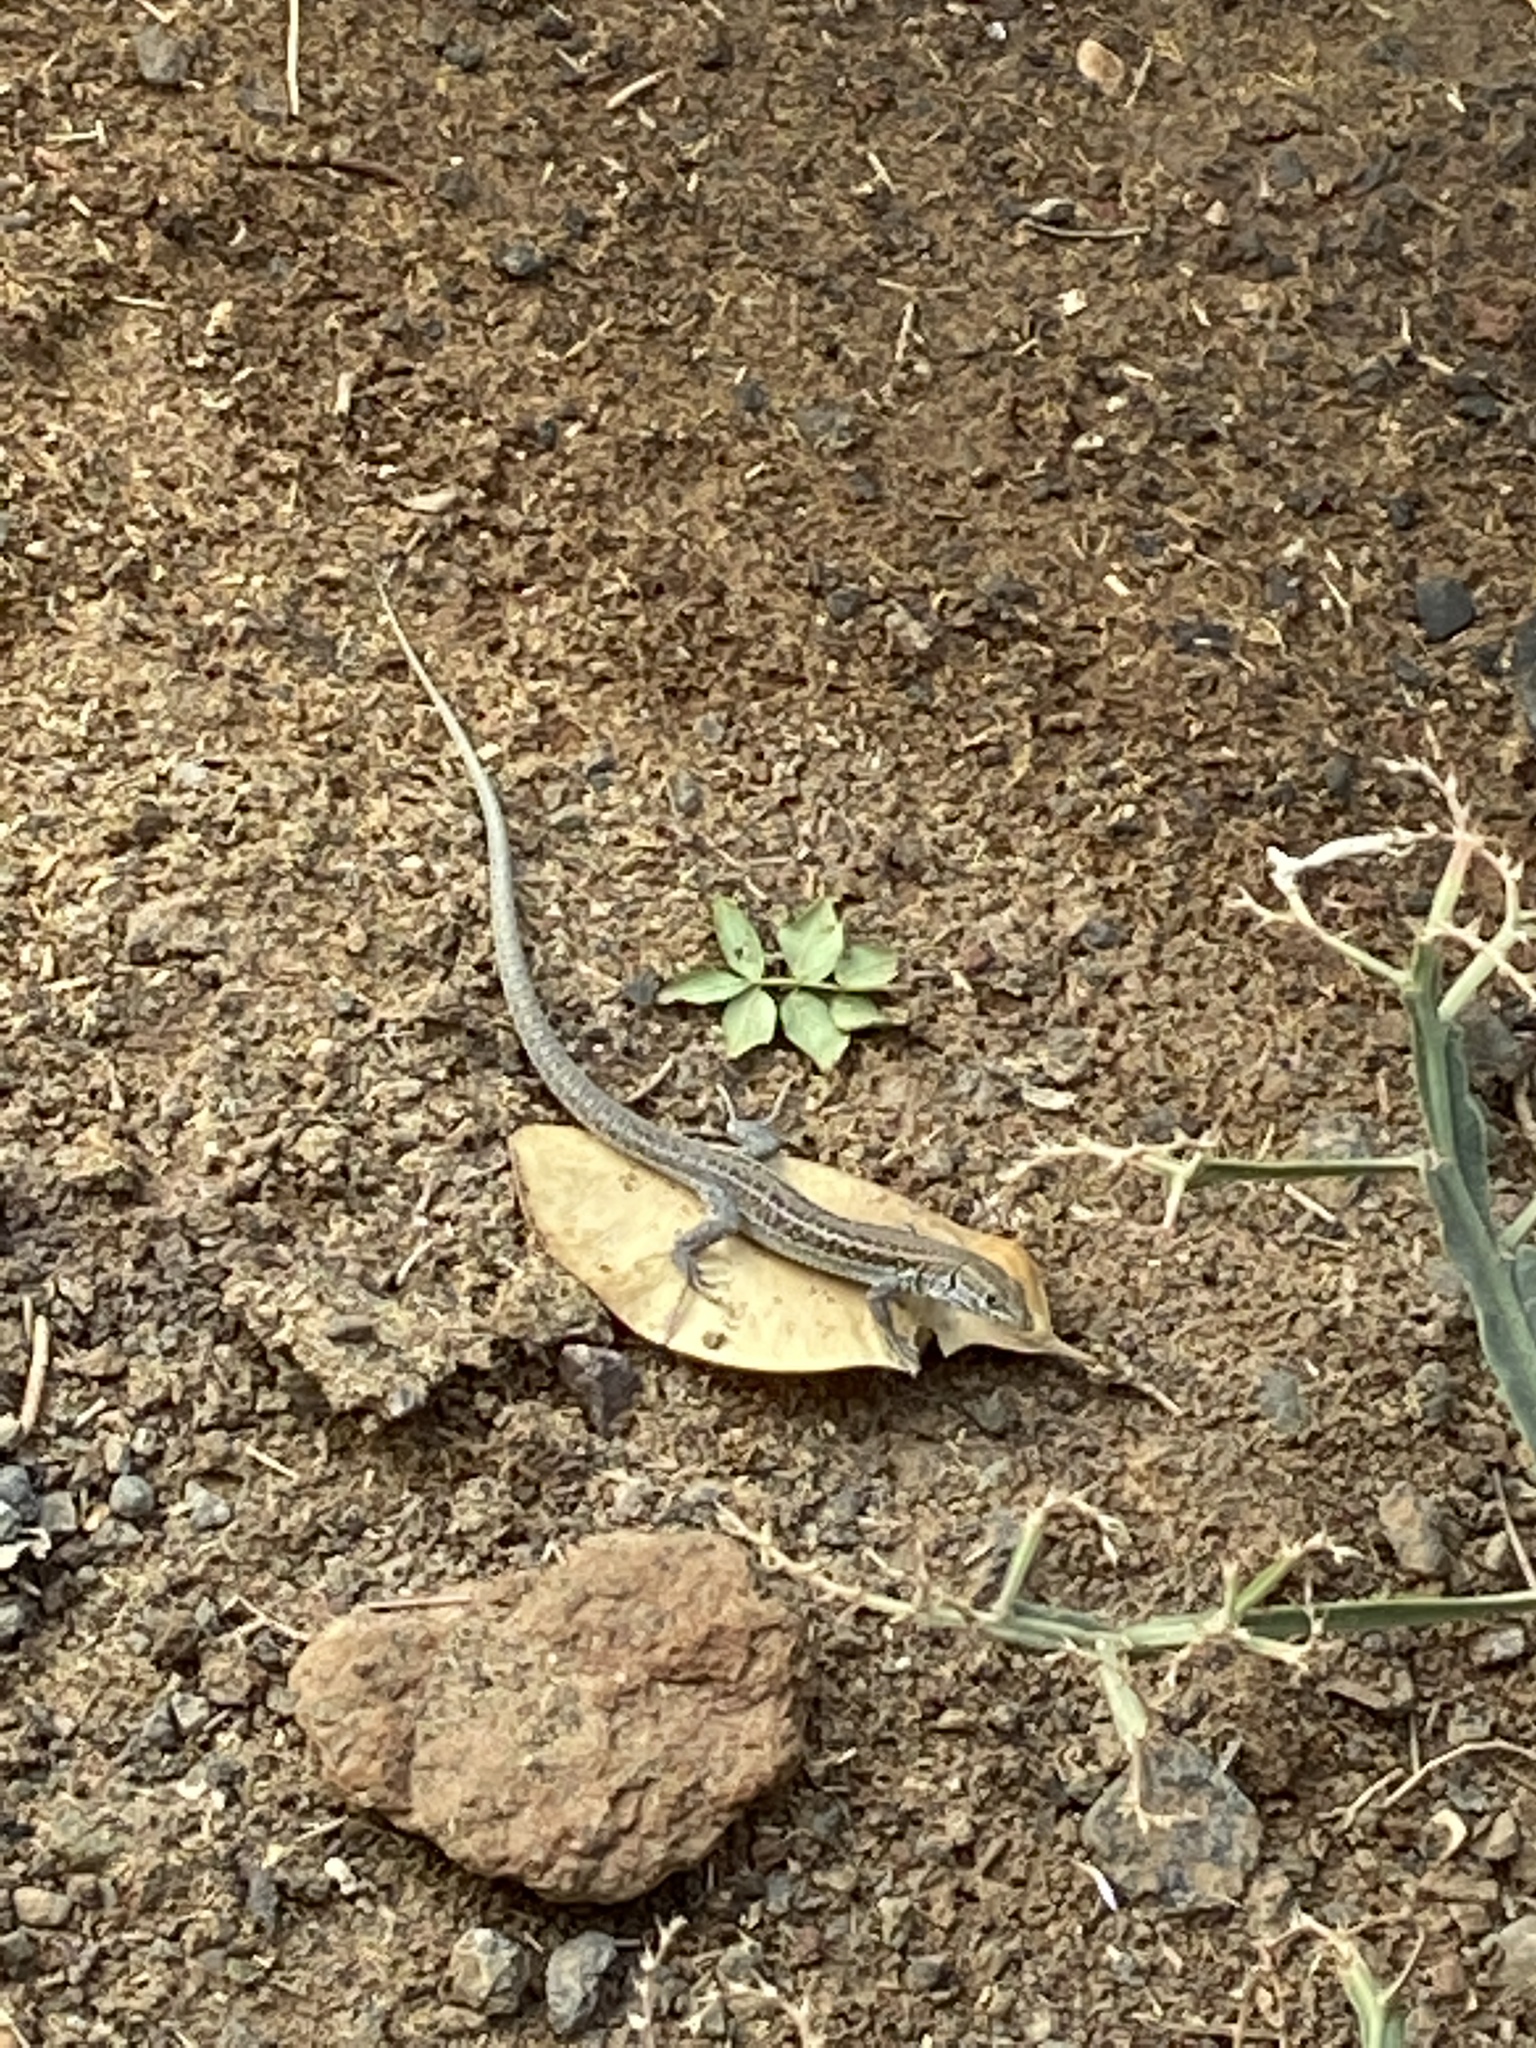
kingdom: Animalia
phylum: Chordata
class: Squamata
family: Lacertidae
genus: Gallotia
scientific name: Gallotia atlantica
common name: Atlantic lizard
